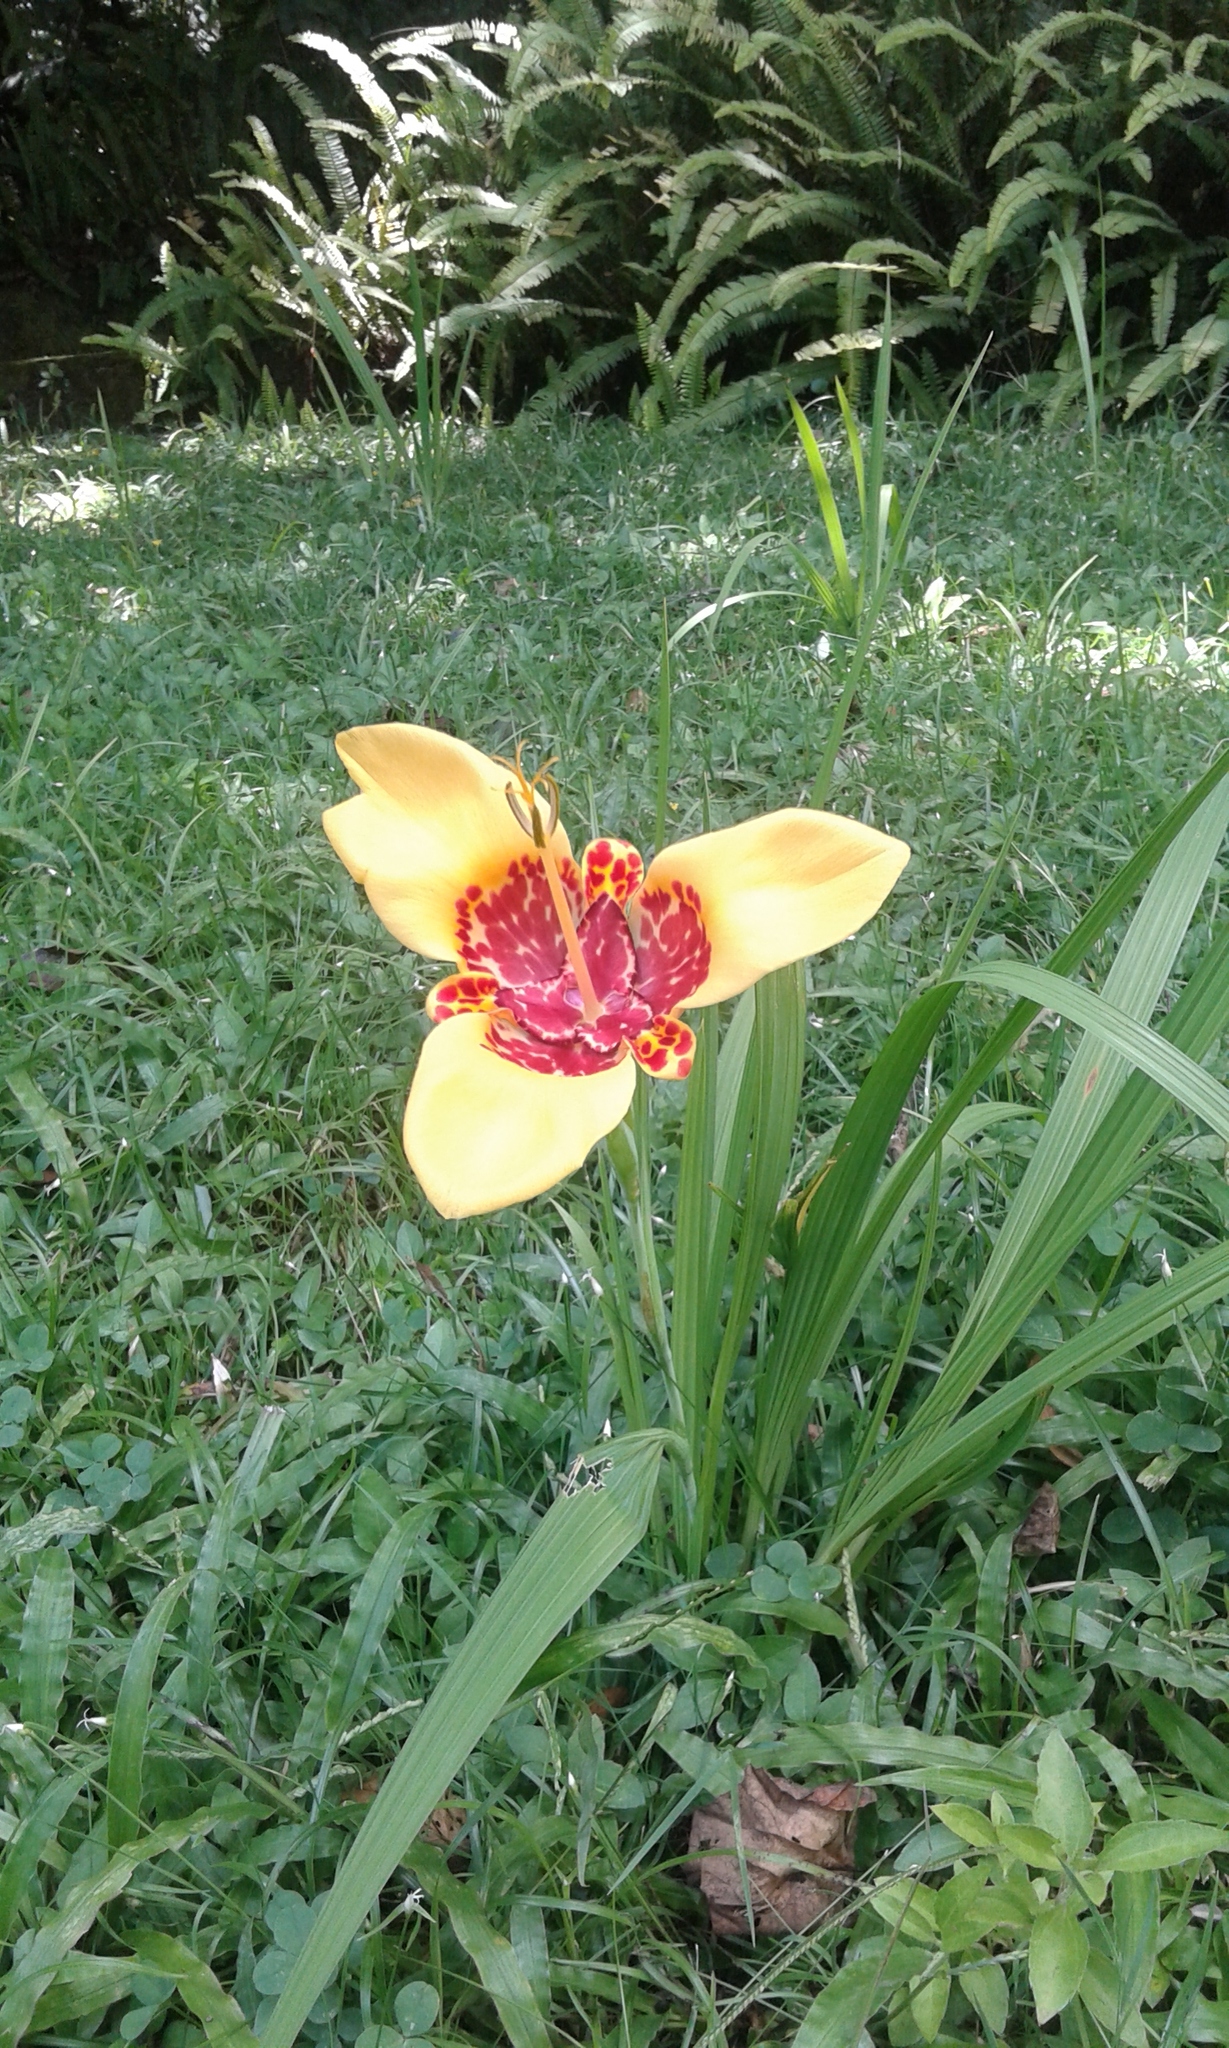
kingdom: Plantae
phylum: Tracheophyta
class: Liliopsida
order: Asparagales
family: Iridaceae
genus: Tigridia
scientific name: Tigridia pavonia
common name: Peacock-flower
